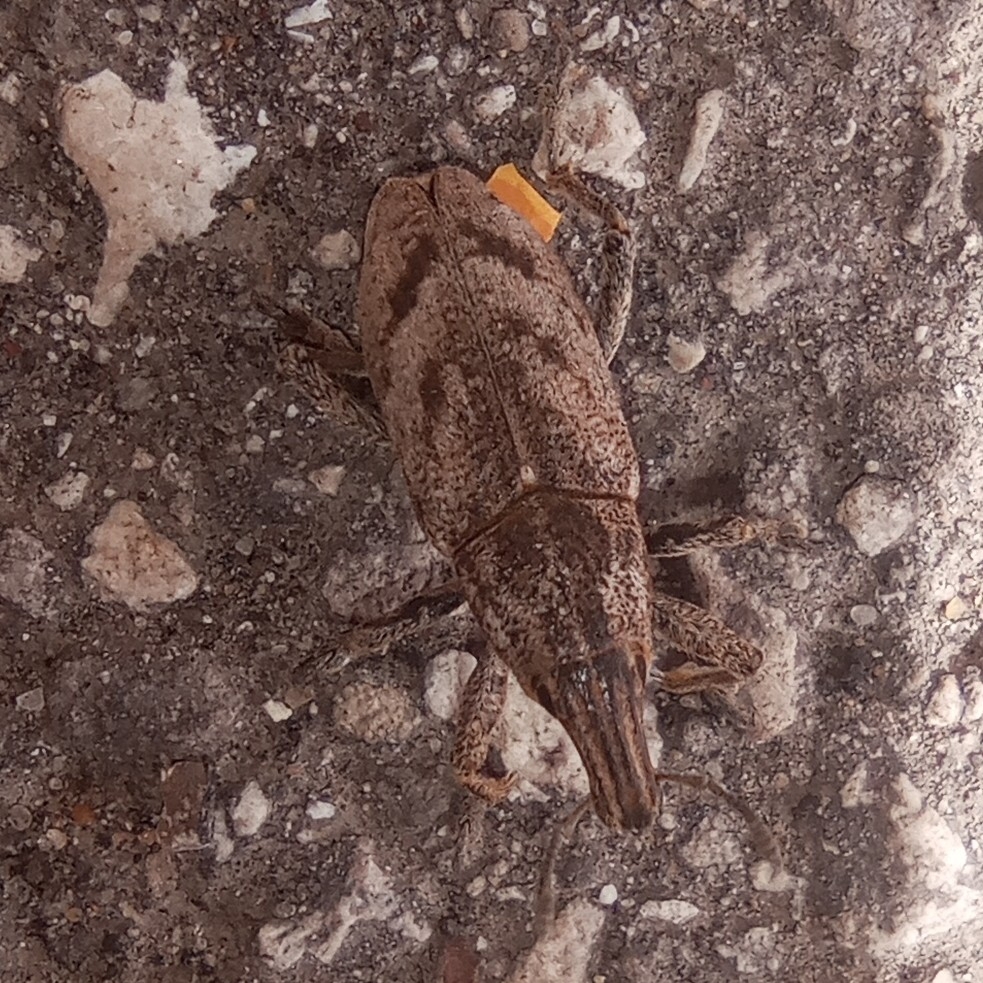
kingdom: Animalia
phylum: Arthropoda
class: Insecta
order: Coleoptera
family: Curculionidae
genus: Cleonis
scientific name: Cleonis pigra
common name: Large thistle weevil
